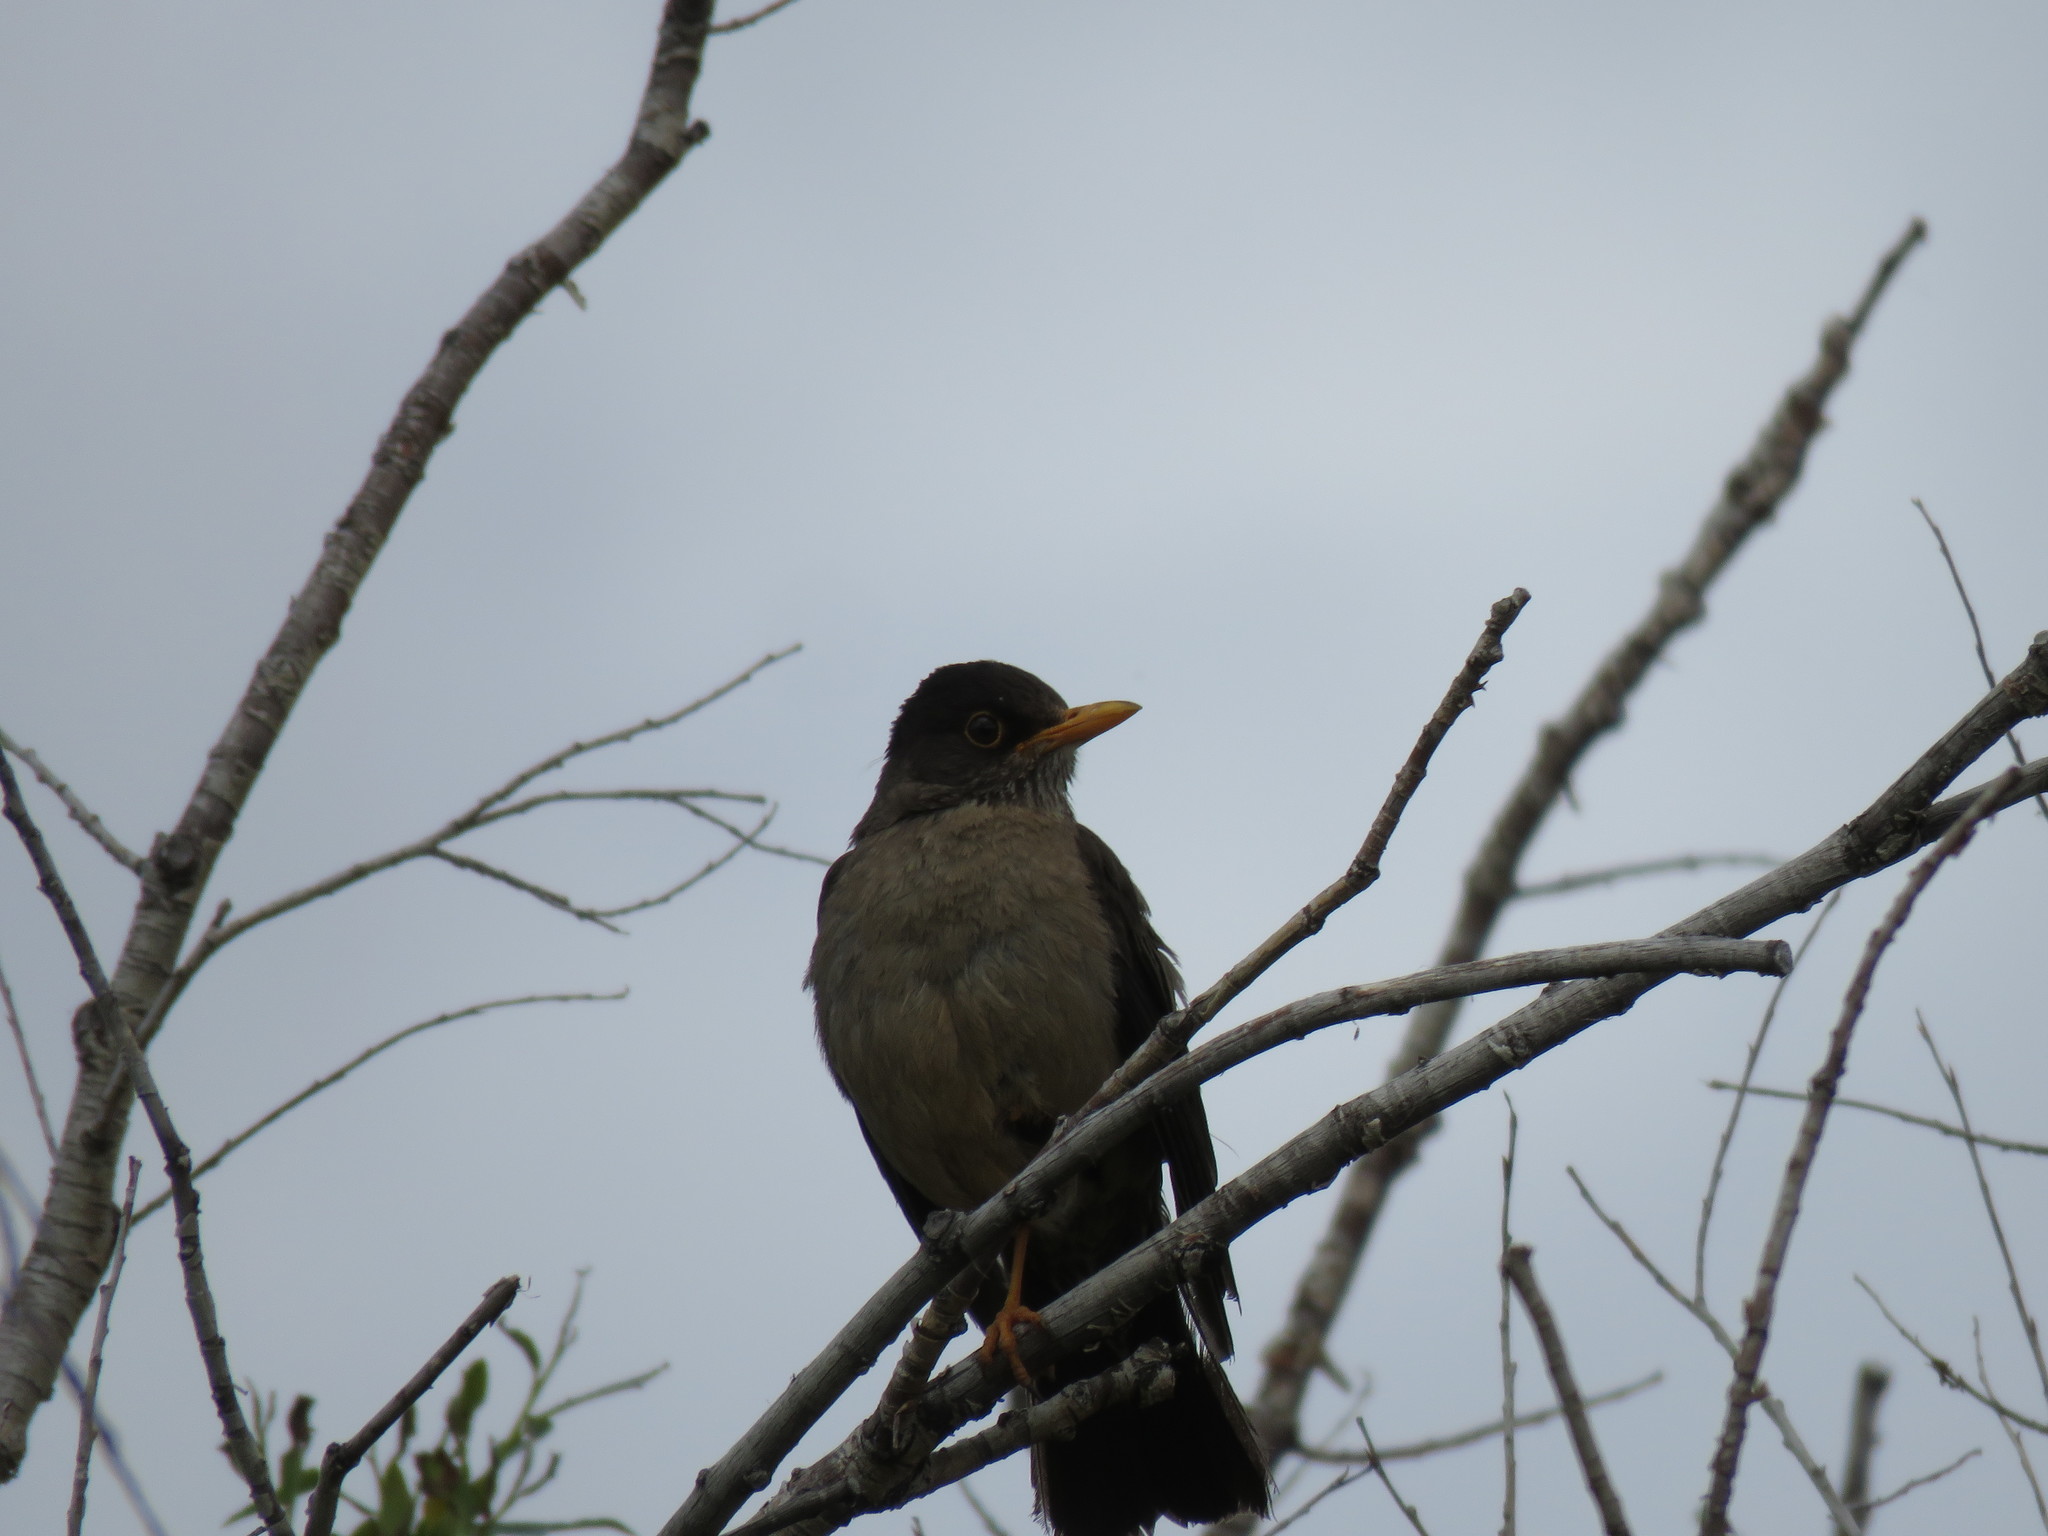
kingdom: Animalia
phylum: Chordata
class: Aves
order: Passeriformes
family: Turdidae
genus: Turdus
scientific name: Turdus falcklandii
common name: Austral thrush
